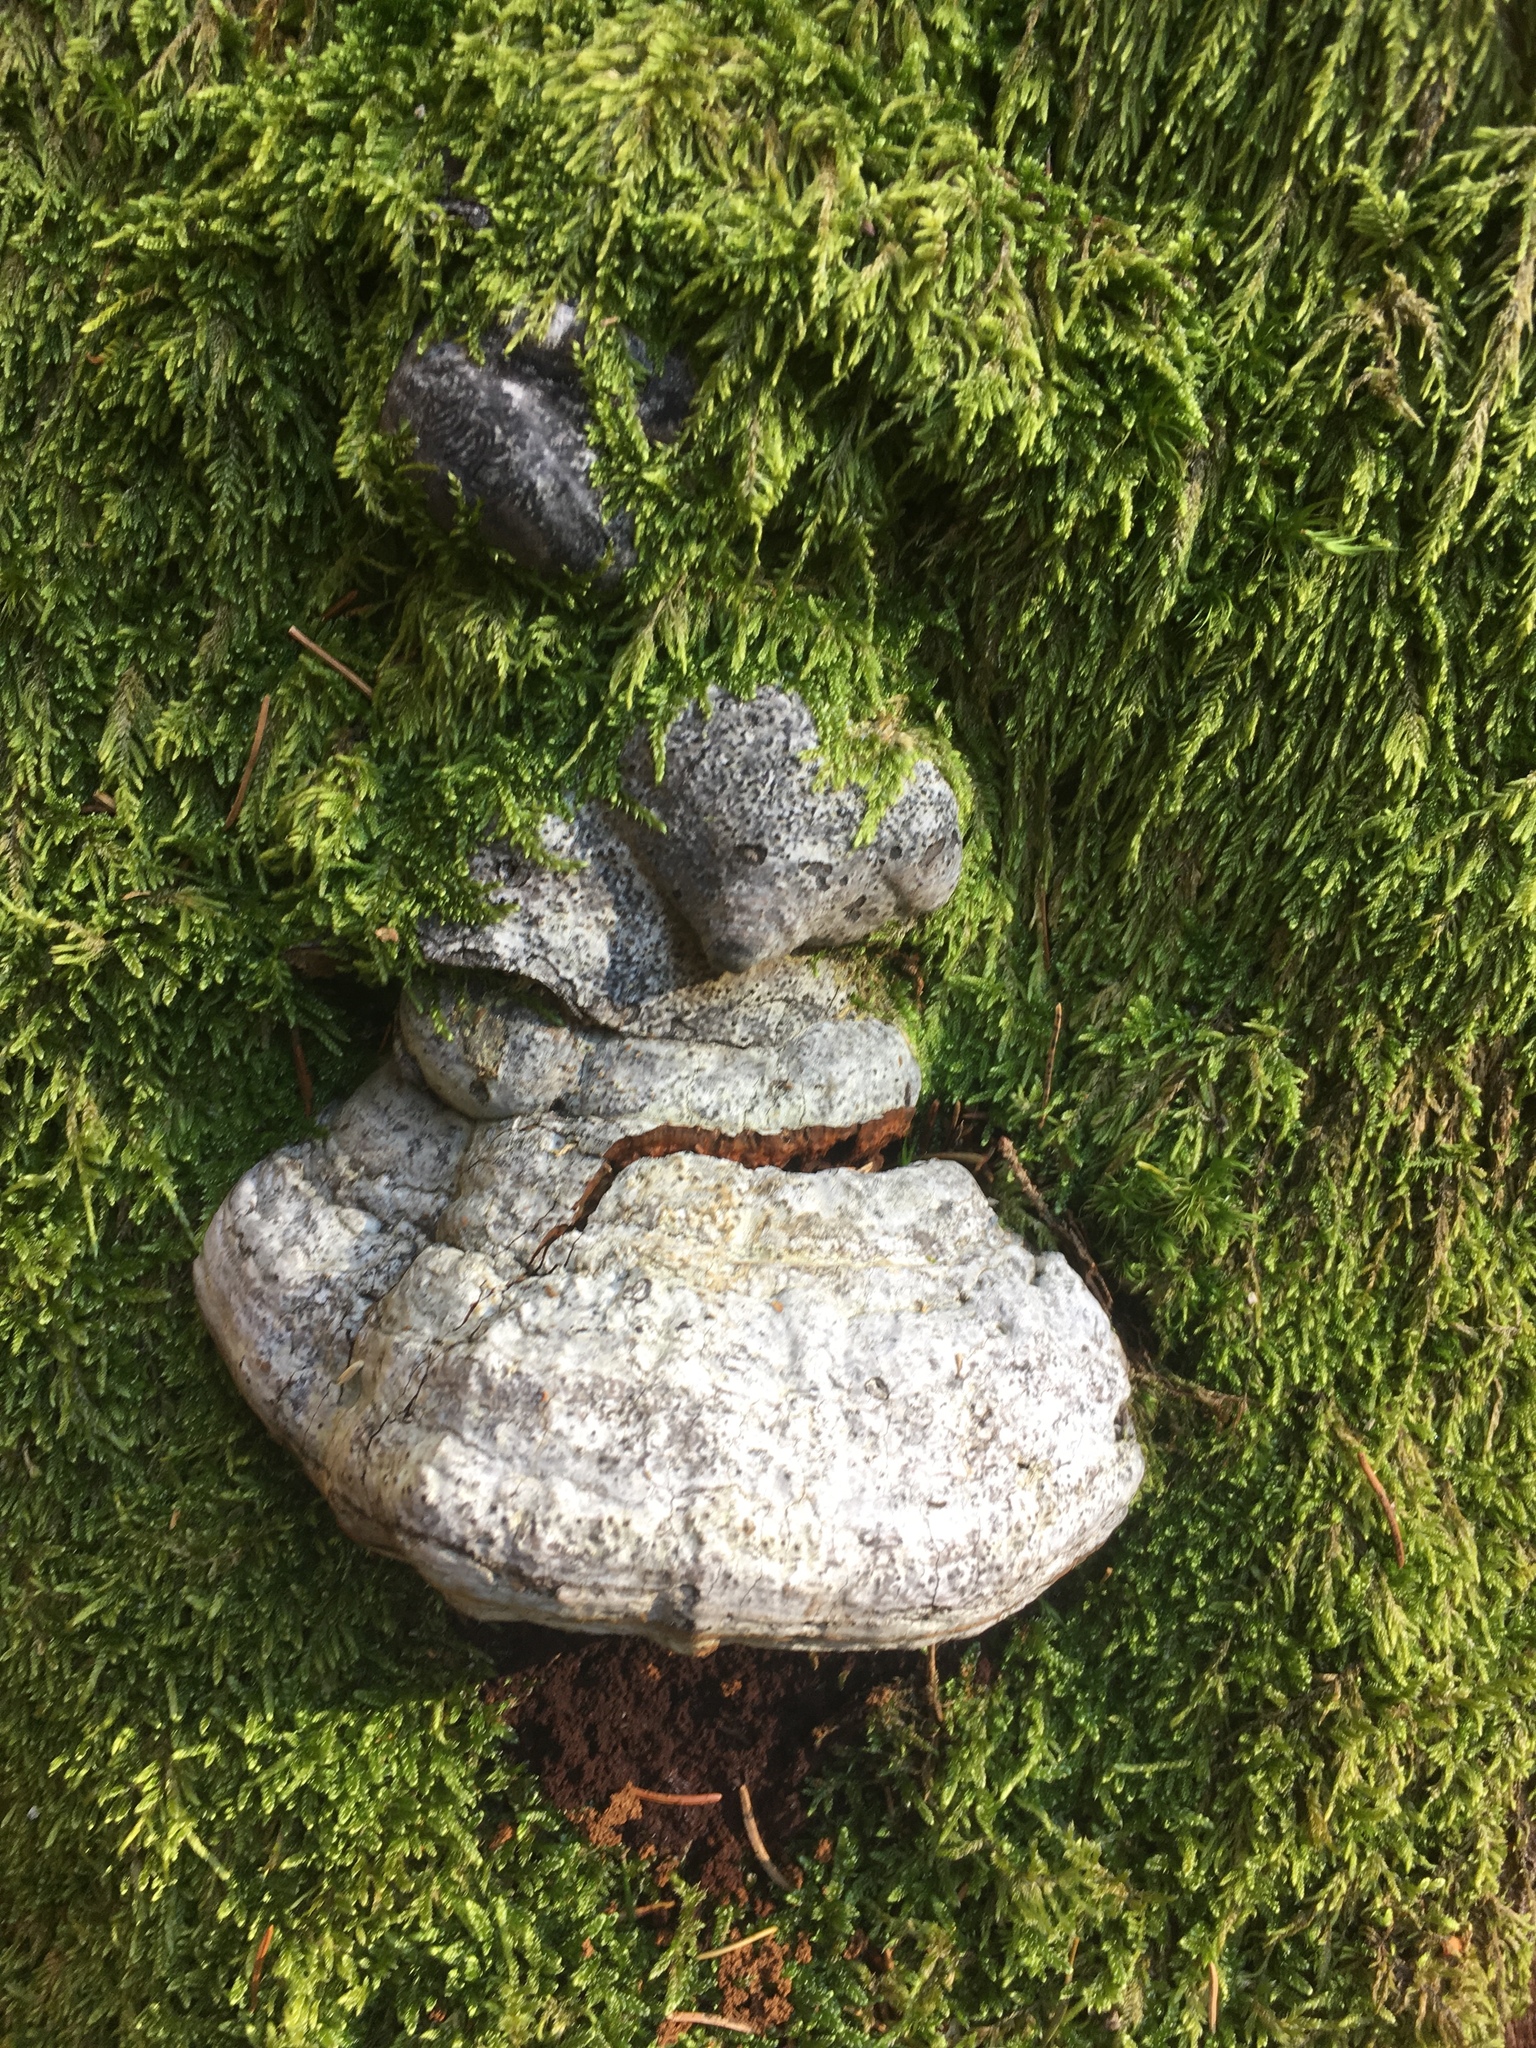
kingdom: Fungi
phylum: Basidiomycota
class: Agaricomycetes
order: Polyporales
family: Polyporaceae
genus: Fomes
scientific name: Fomes fomentarius
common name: Hoof fungus
